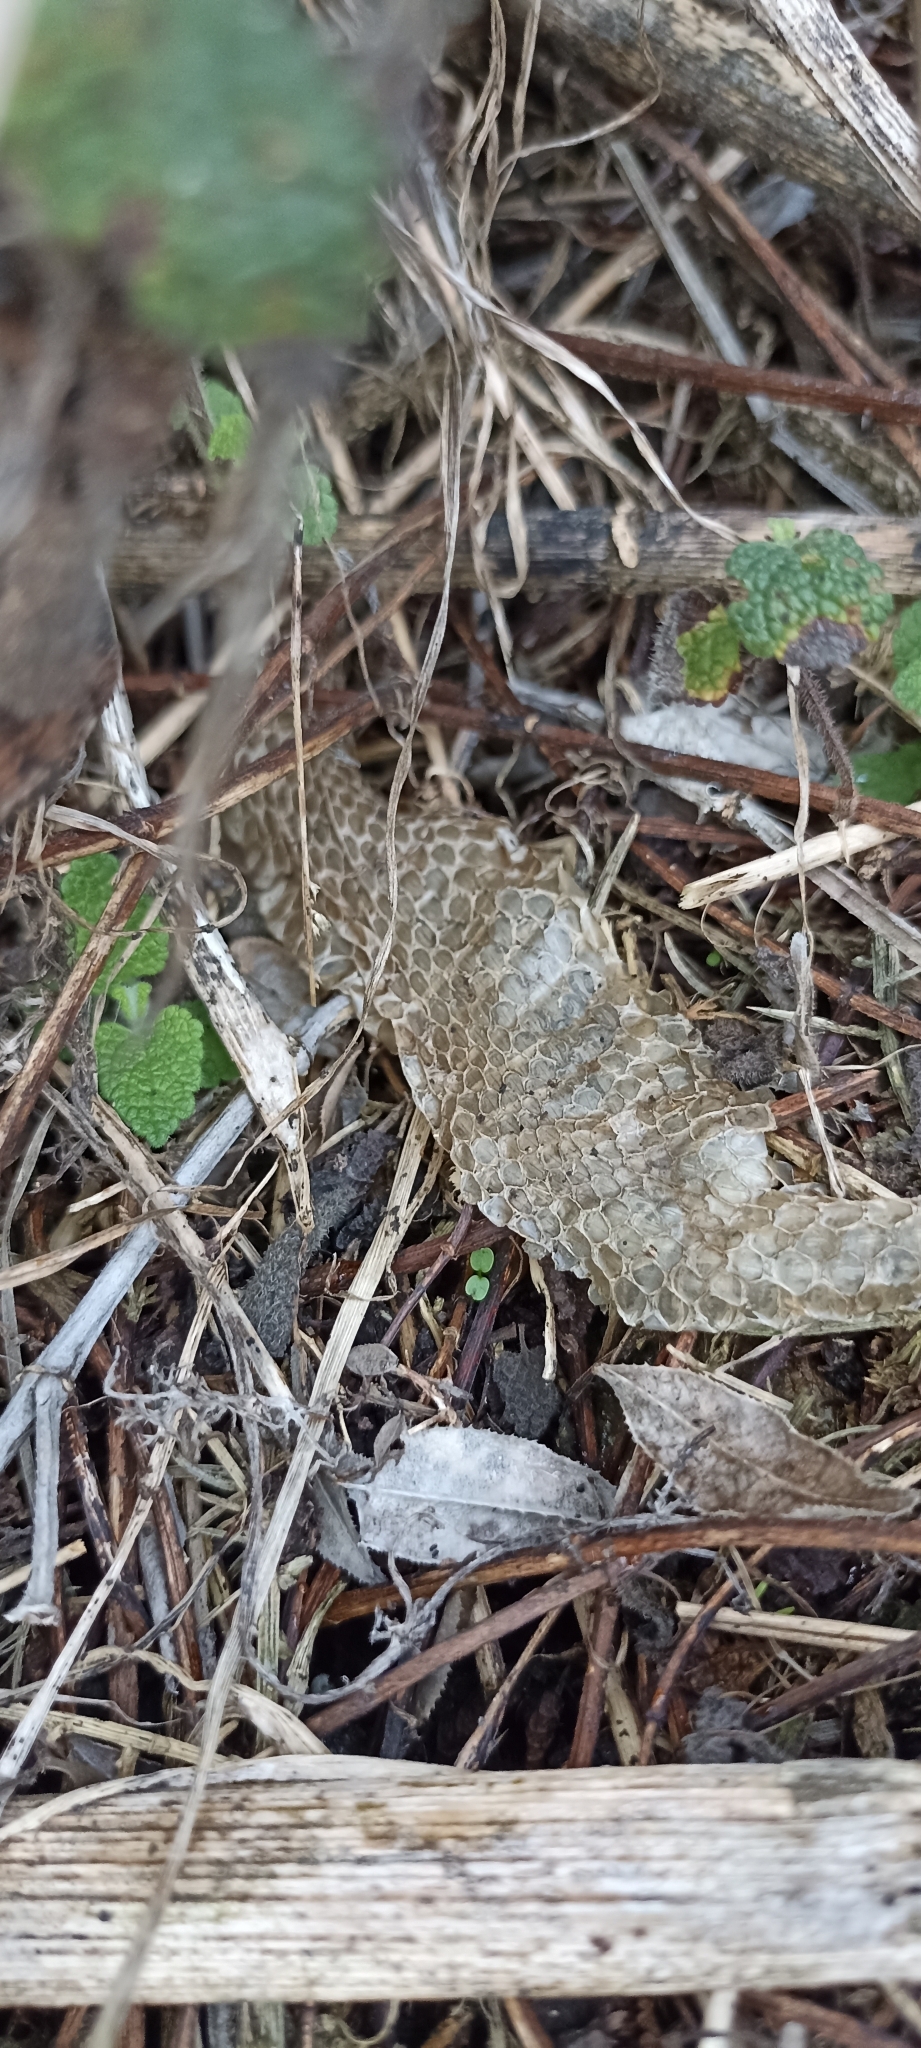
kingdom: Animalia
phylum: Chordata
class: Squamata
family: Colubridae
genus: Natrix
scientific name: Natrix helvetica
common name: Banded grass snake
